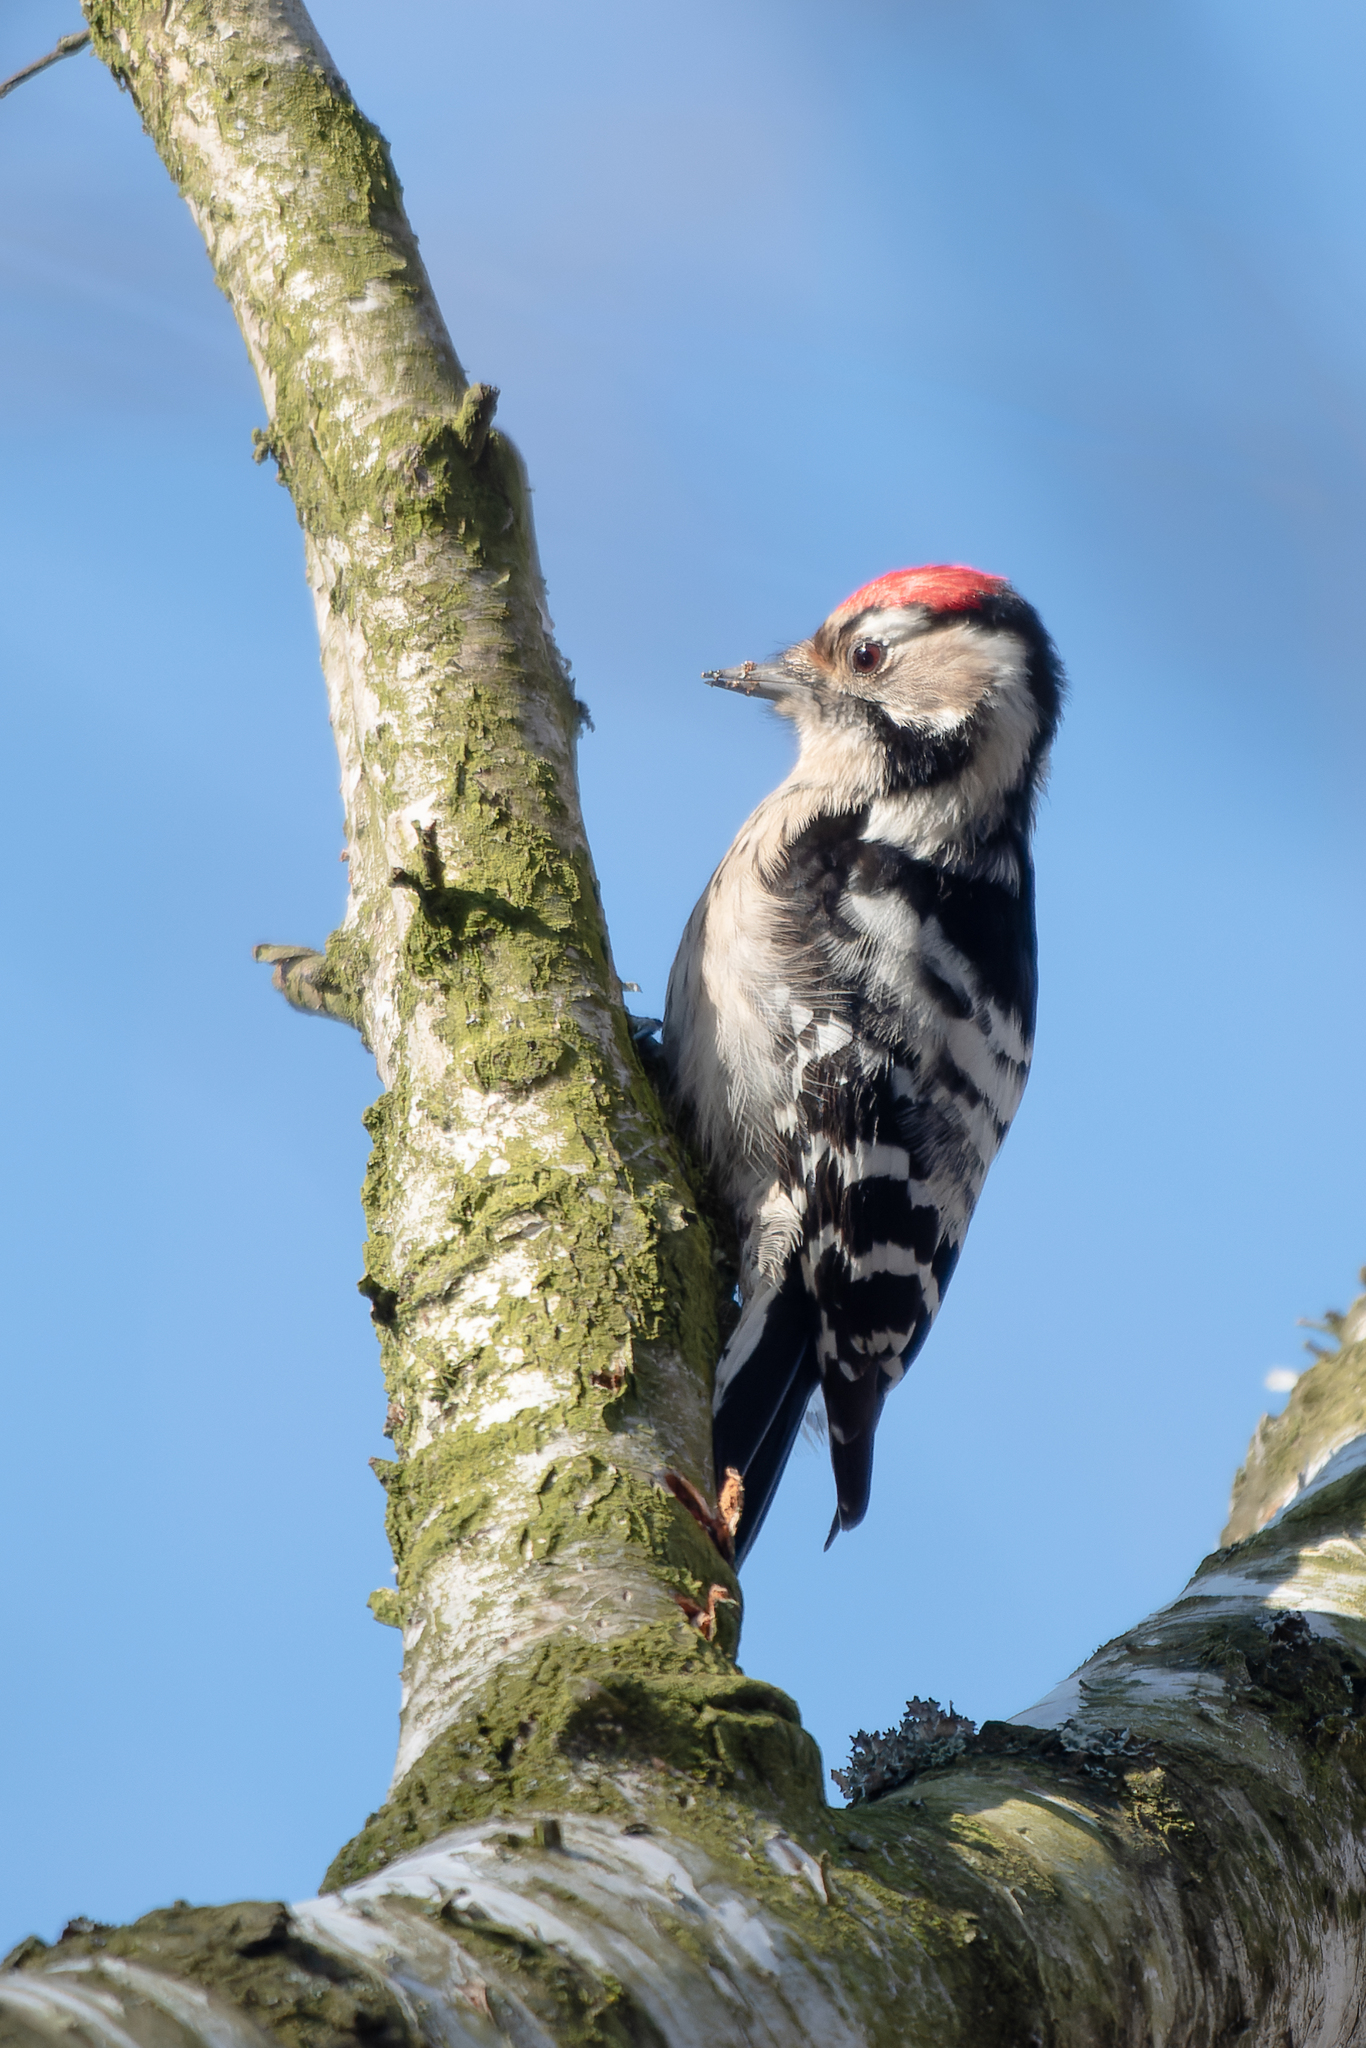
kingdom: Animalia
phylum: Chordata
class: Aves
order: Piciformes
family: Picidae
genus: Dryobates
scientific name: Dryobates minor
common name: Lesser spotted woodpecker
